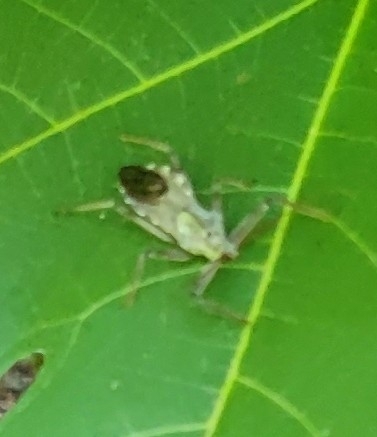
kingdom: Animalia
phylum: Arthropoda
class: Insecta
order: Hemiptera
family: Reduviidae
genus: Arilus
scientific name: Arilus cristatus
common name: North american wheel bug
